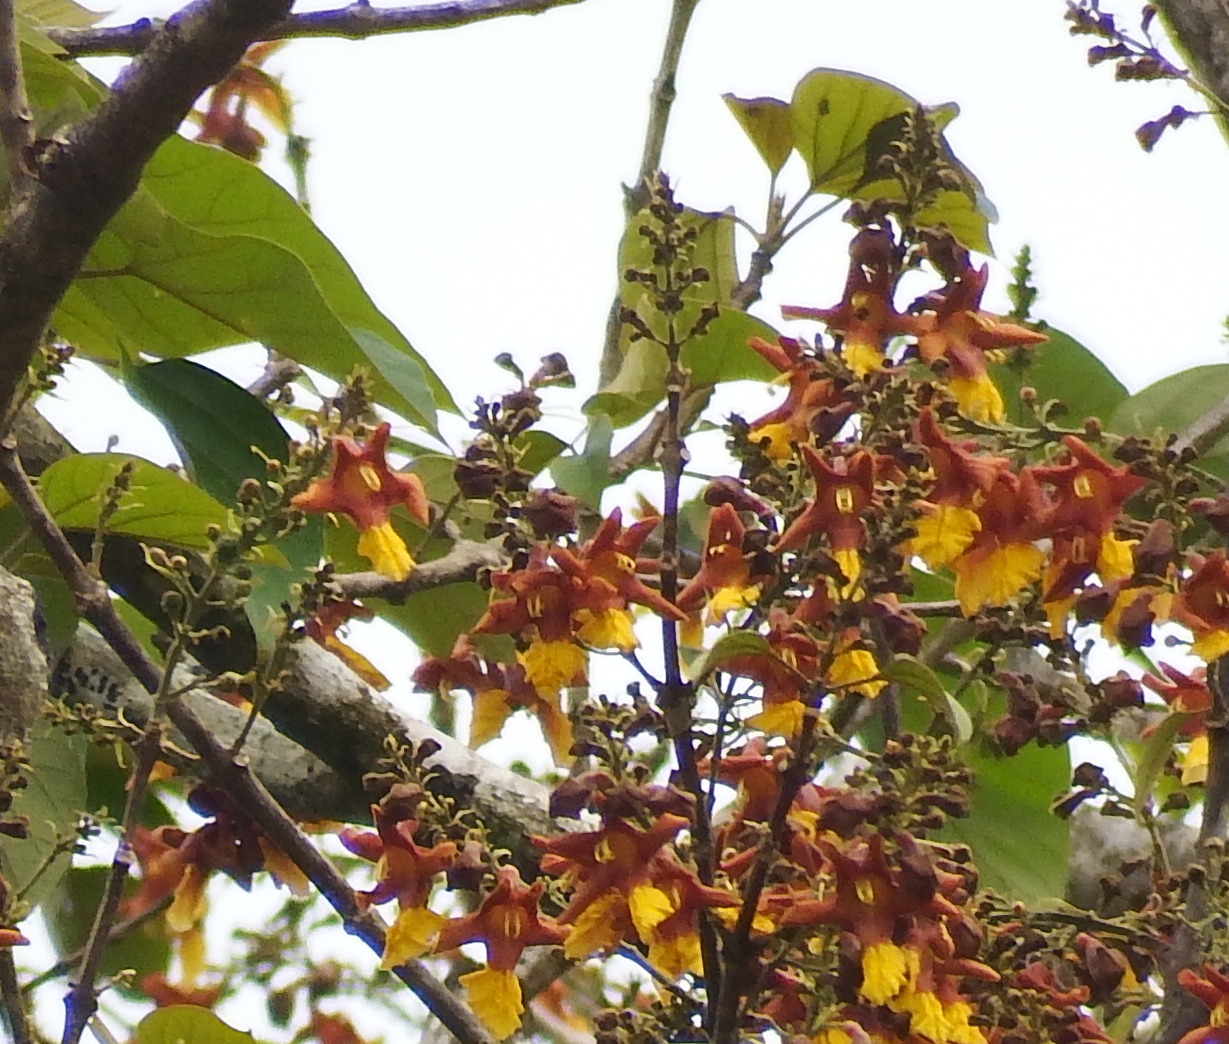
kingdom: Plantae
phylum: Tracheophyta
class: Magnoliopsida
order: Lamiales
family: Lamiaceae
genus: Gmelina
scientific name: Gmelina arborea
